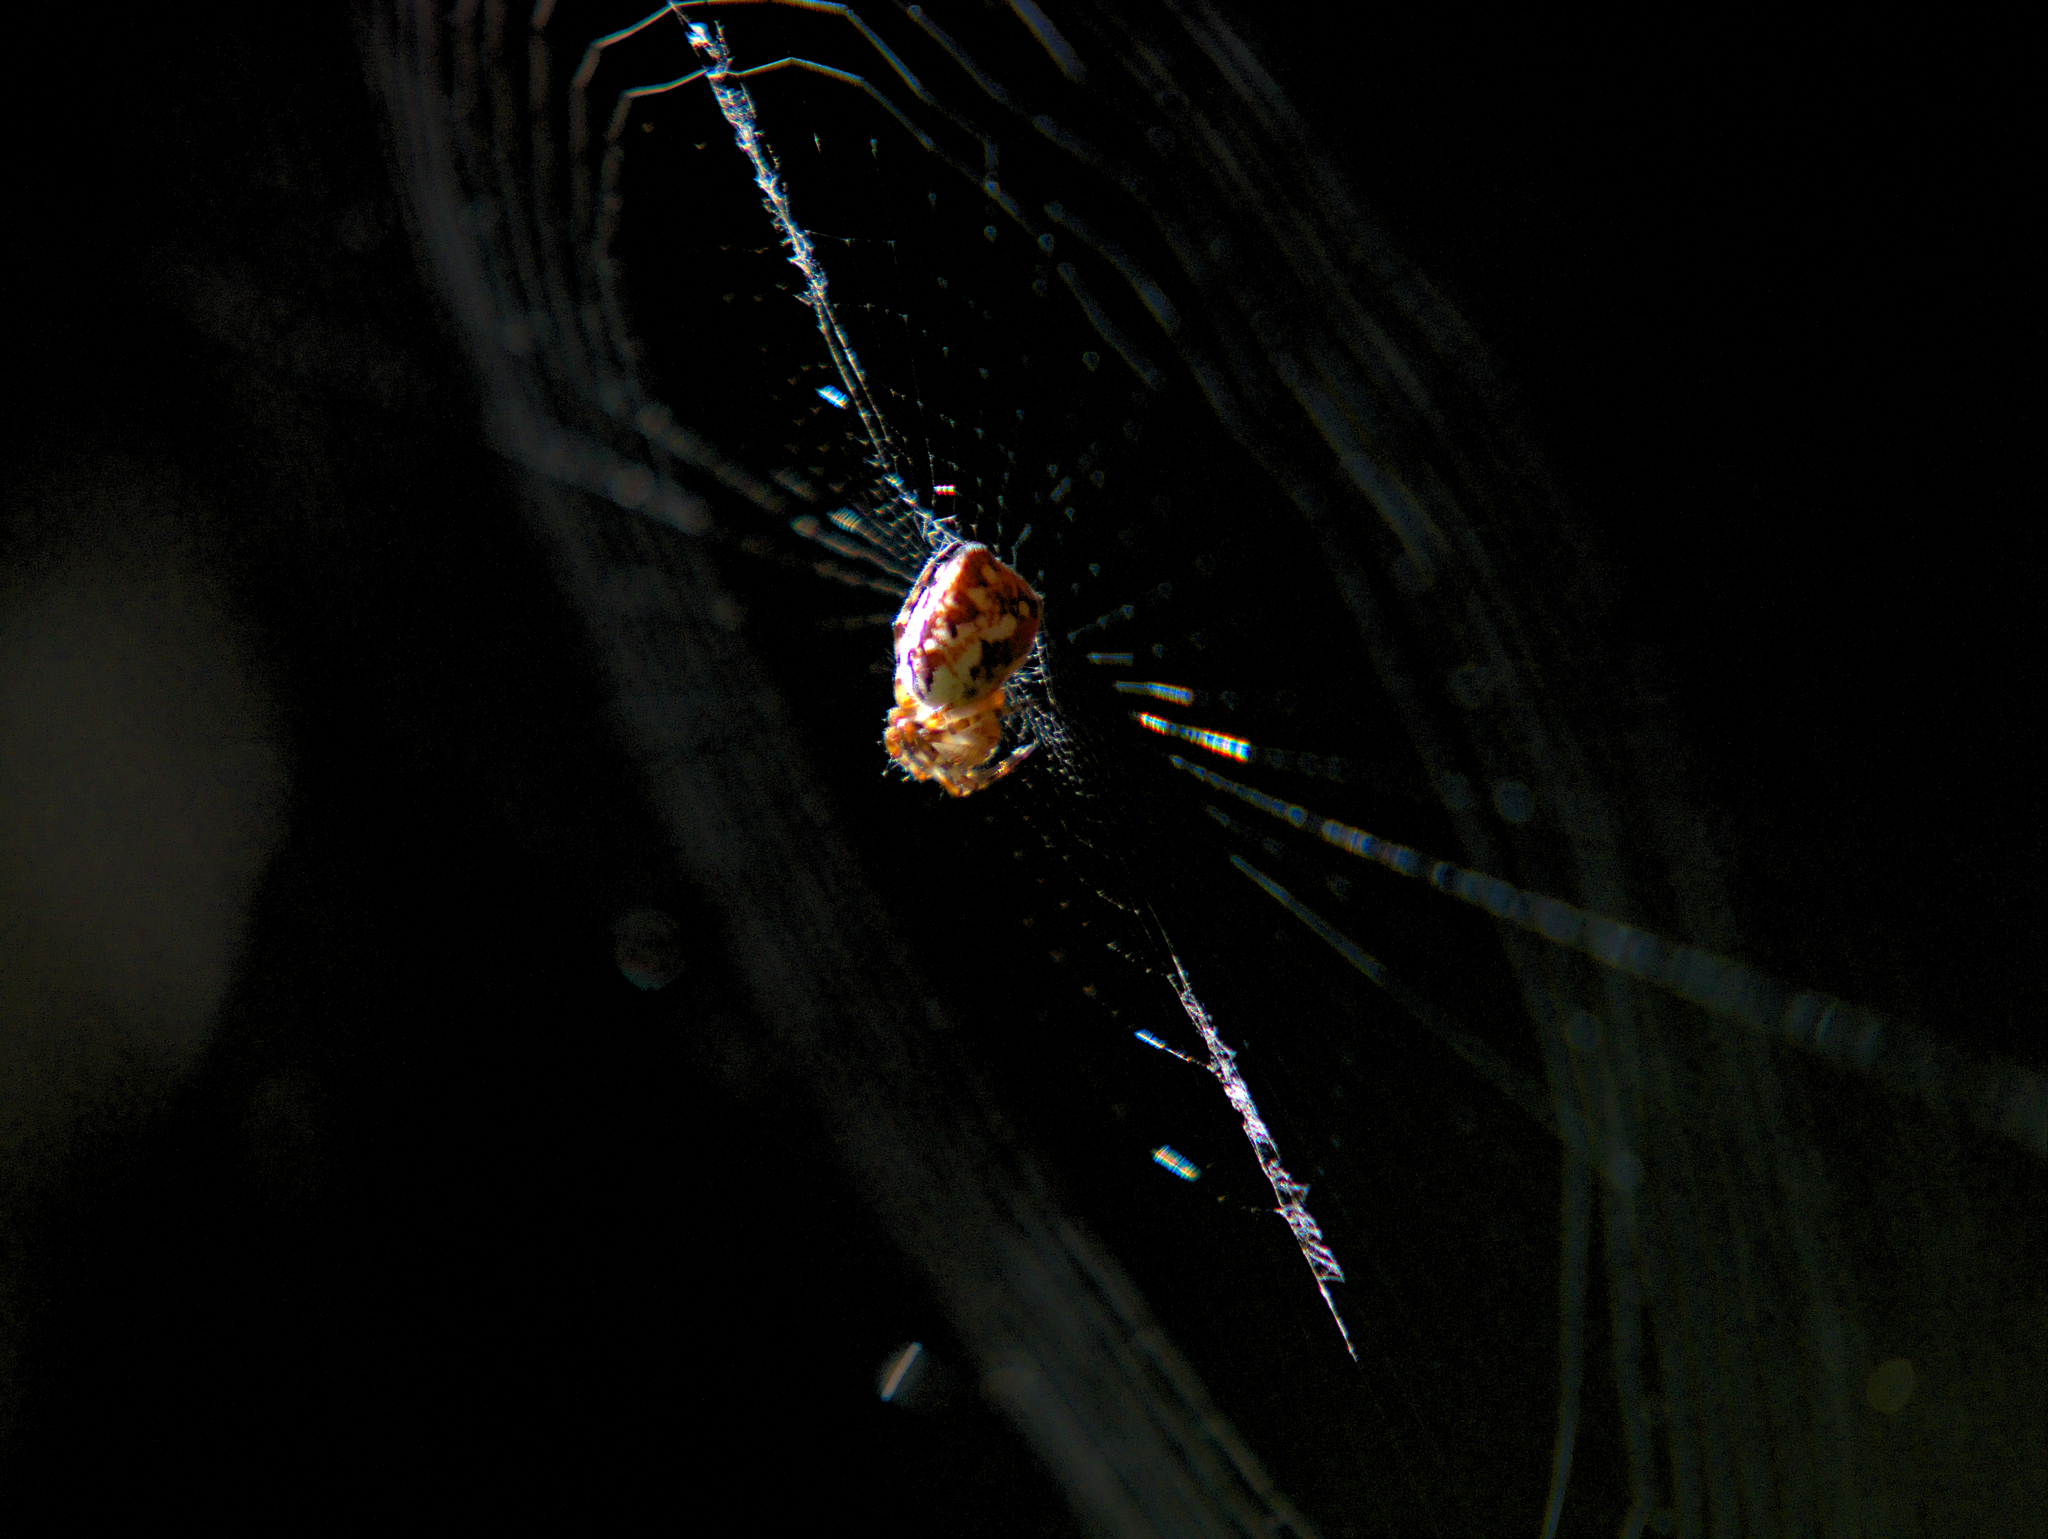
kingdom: Animalia
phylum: Arthropoda
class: Arachnida
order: Araneae
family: Araneidae
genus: Cyclosa
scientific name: Cyclosa conica
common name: Conical trashline orbweaver
